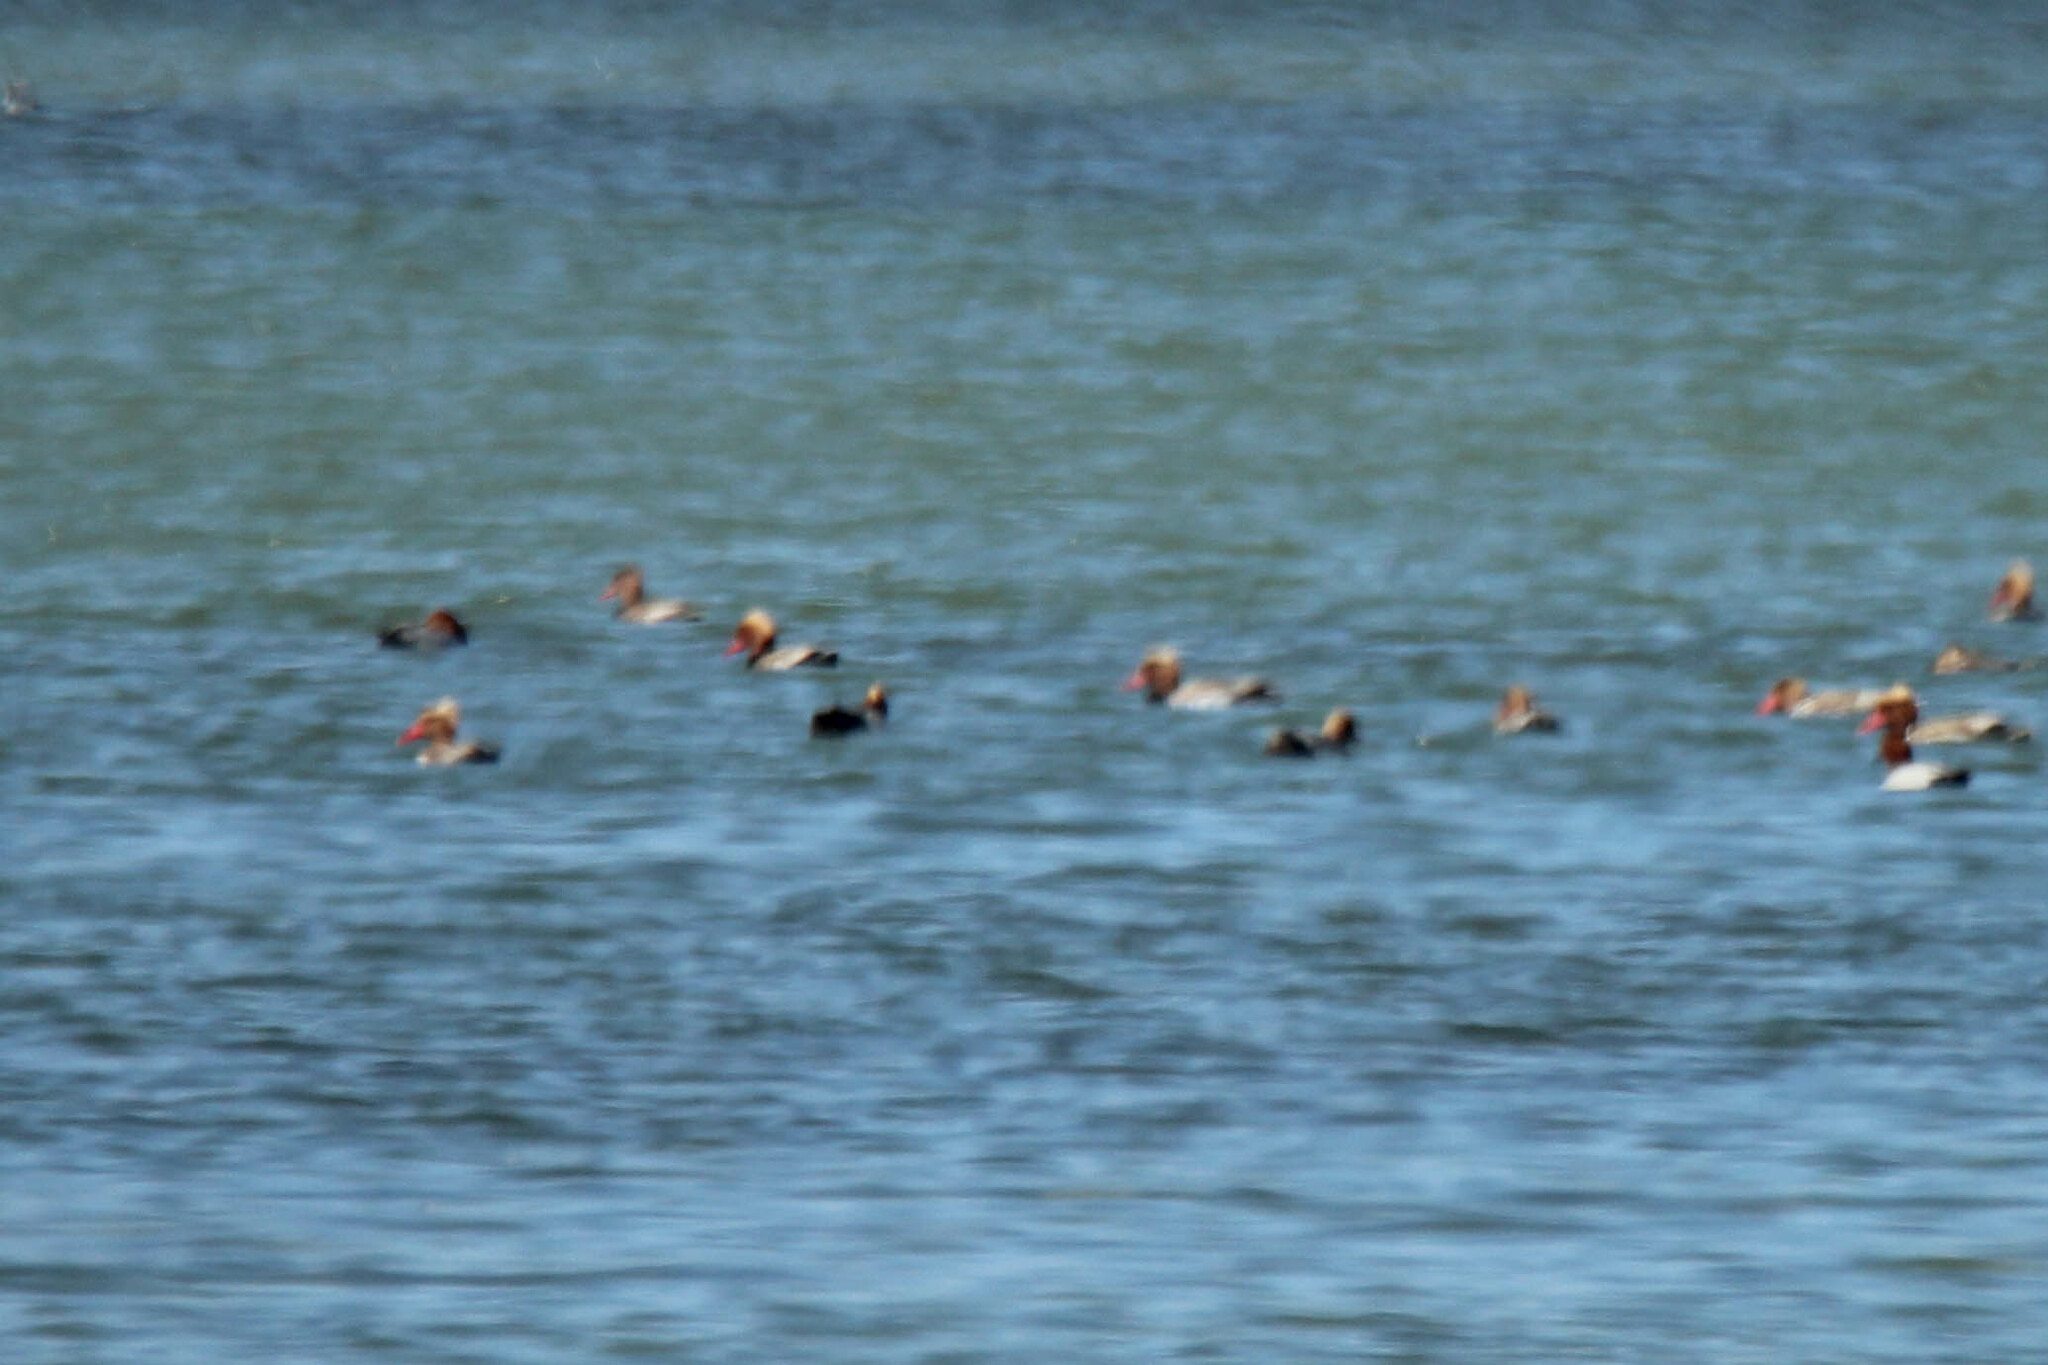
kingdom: Animalia
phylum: Chordata
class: Aves
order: Anseriformes
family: Anatidae
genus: Netta
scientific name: Netta rufina
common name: Red-crested pochard
